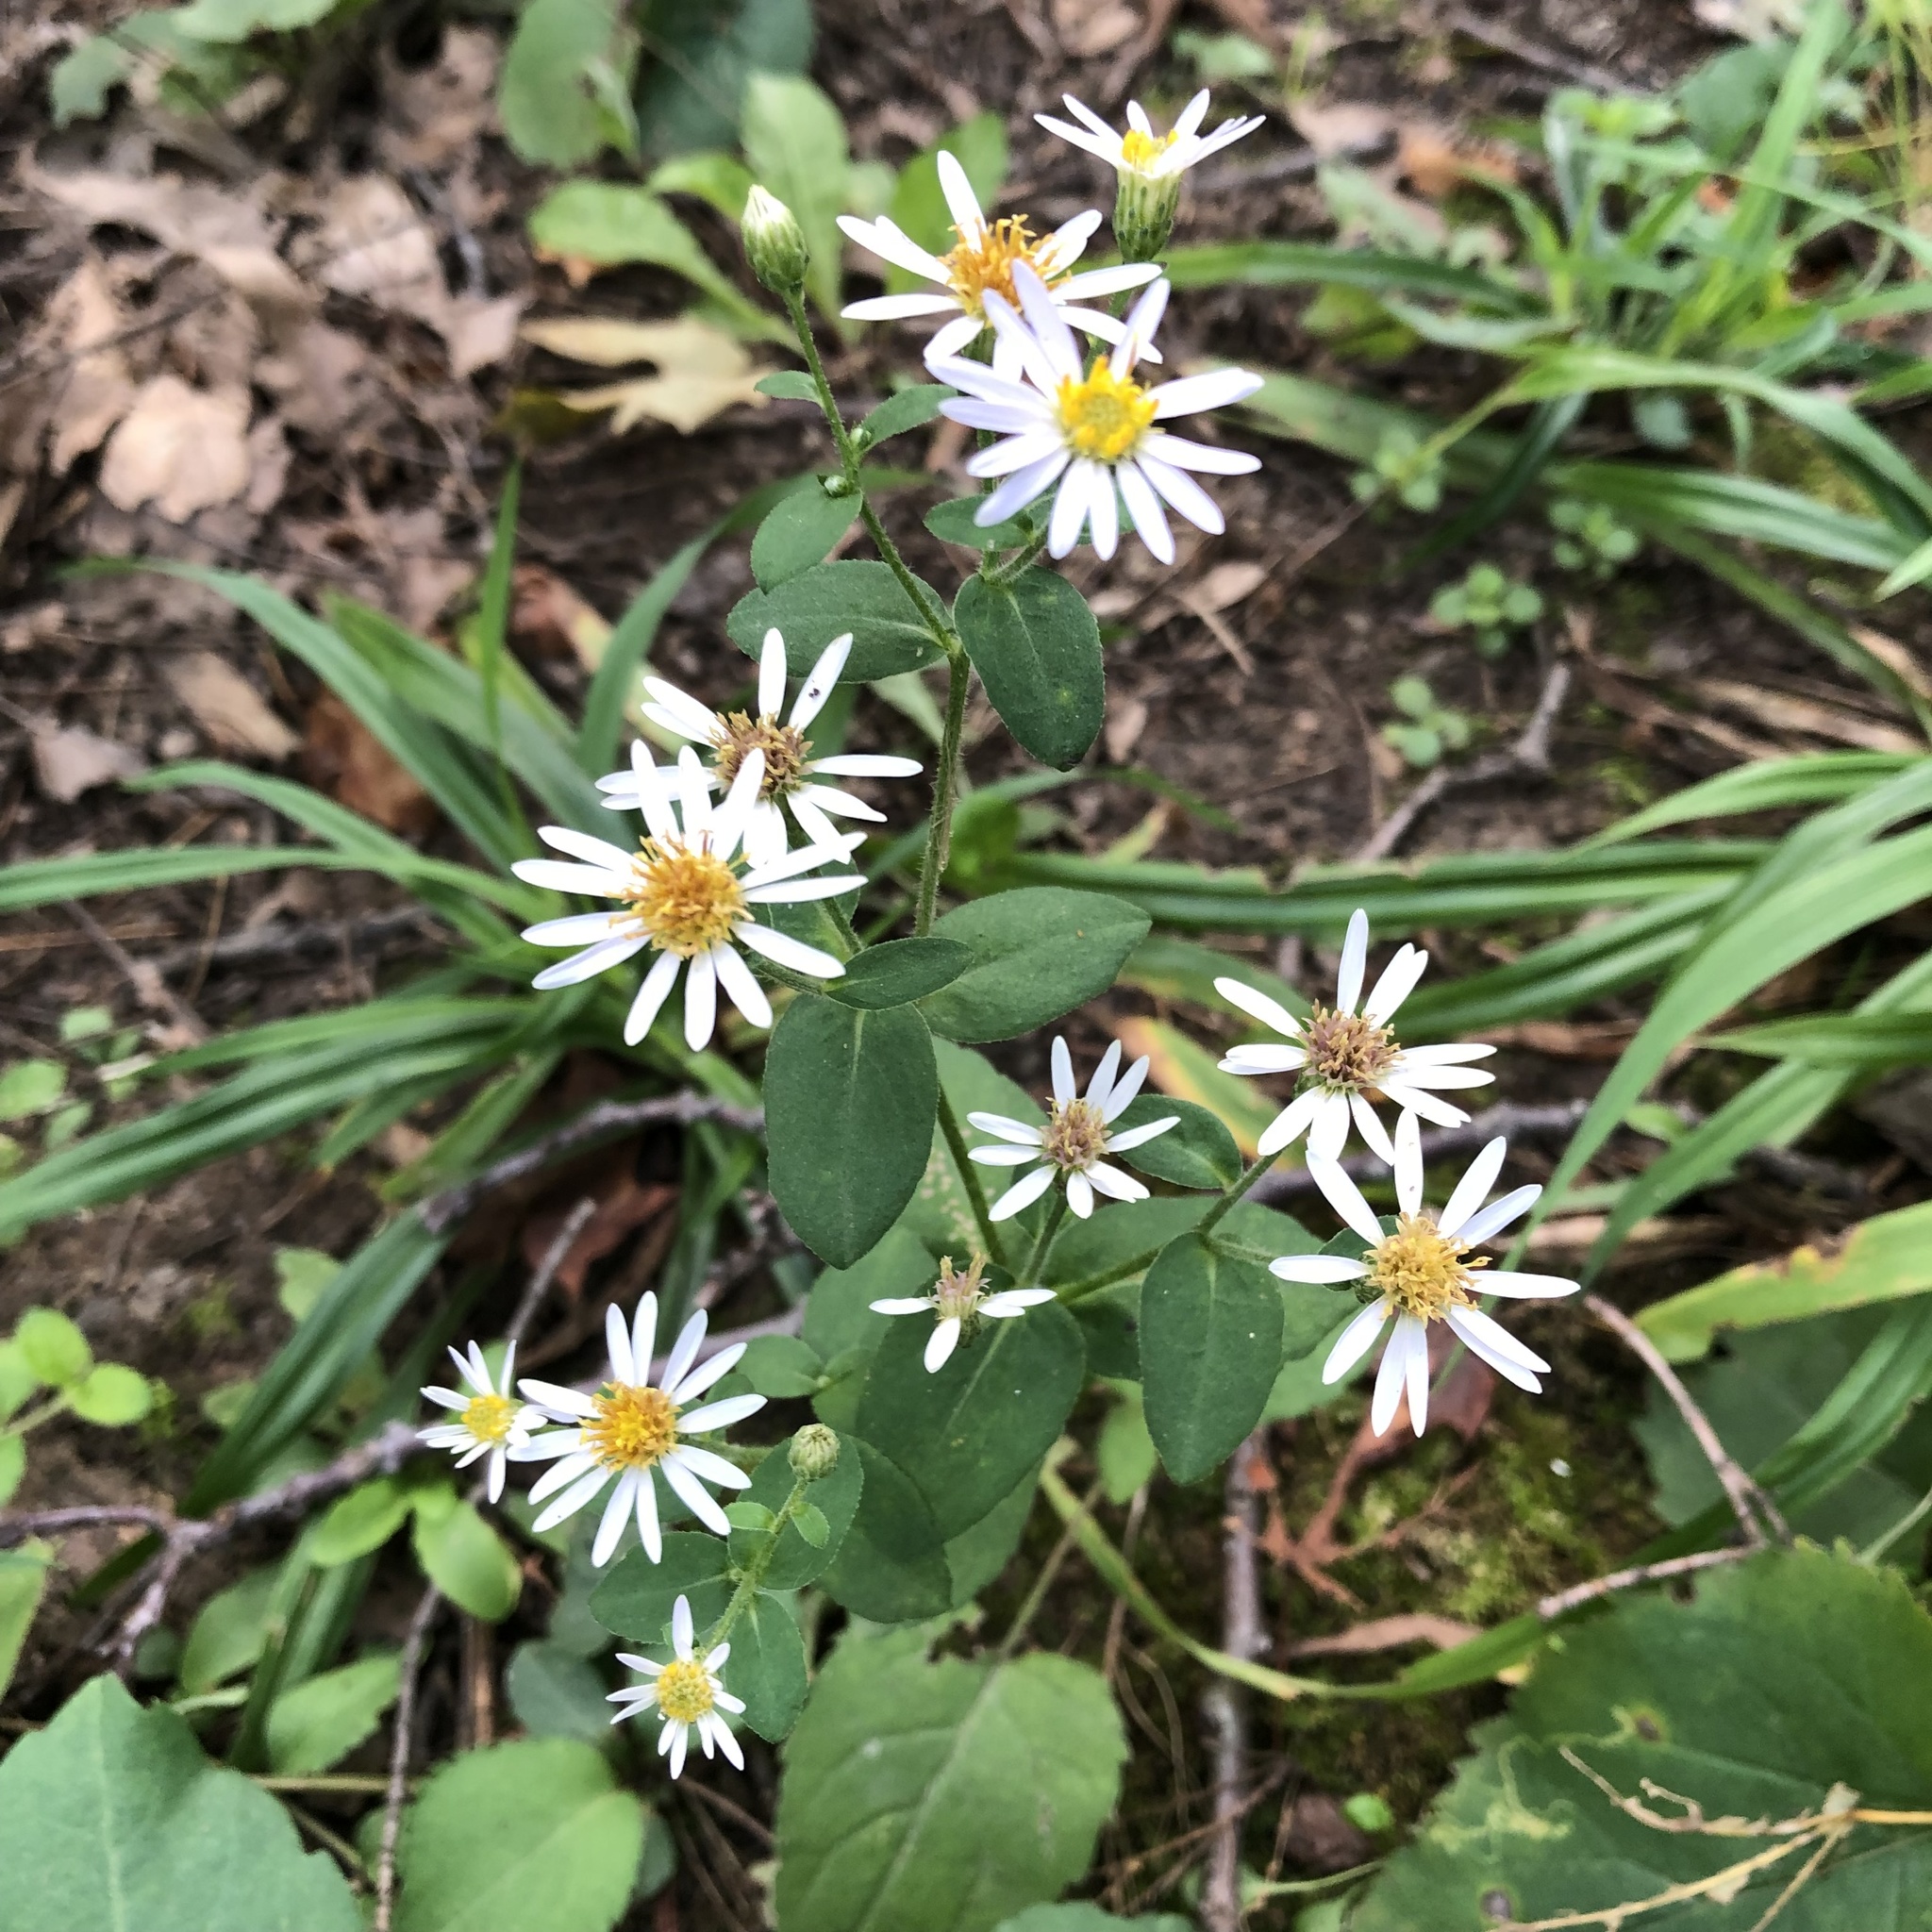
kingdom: Plantae
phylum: Tracheophyta
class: Magnoliopsida
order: Asterales
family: Asteraceae
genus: Eurybia
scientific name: Eurybia macrophylla
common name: Big-leaved aster
